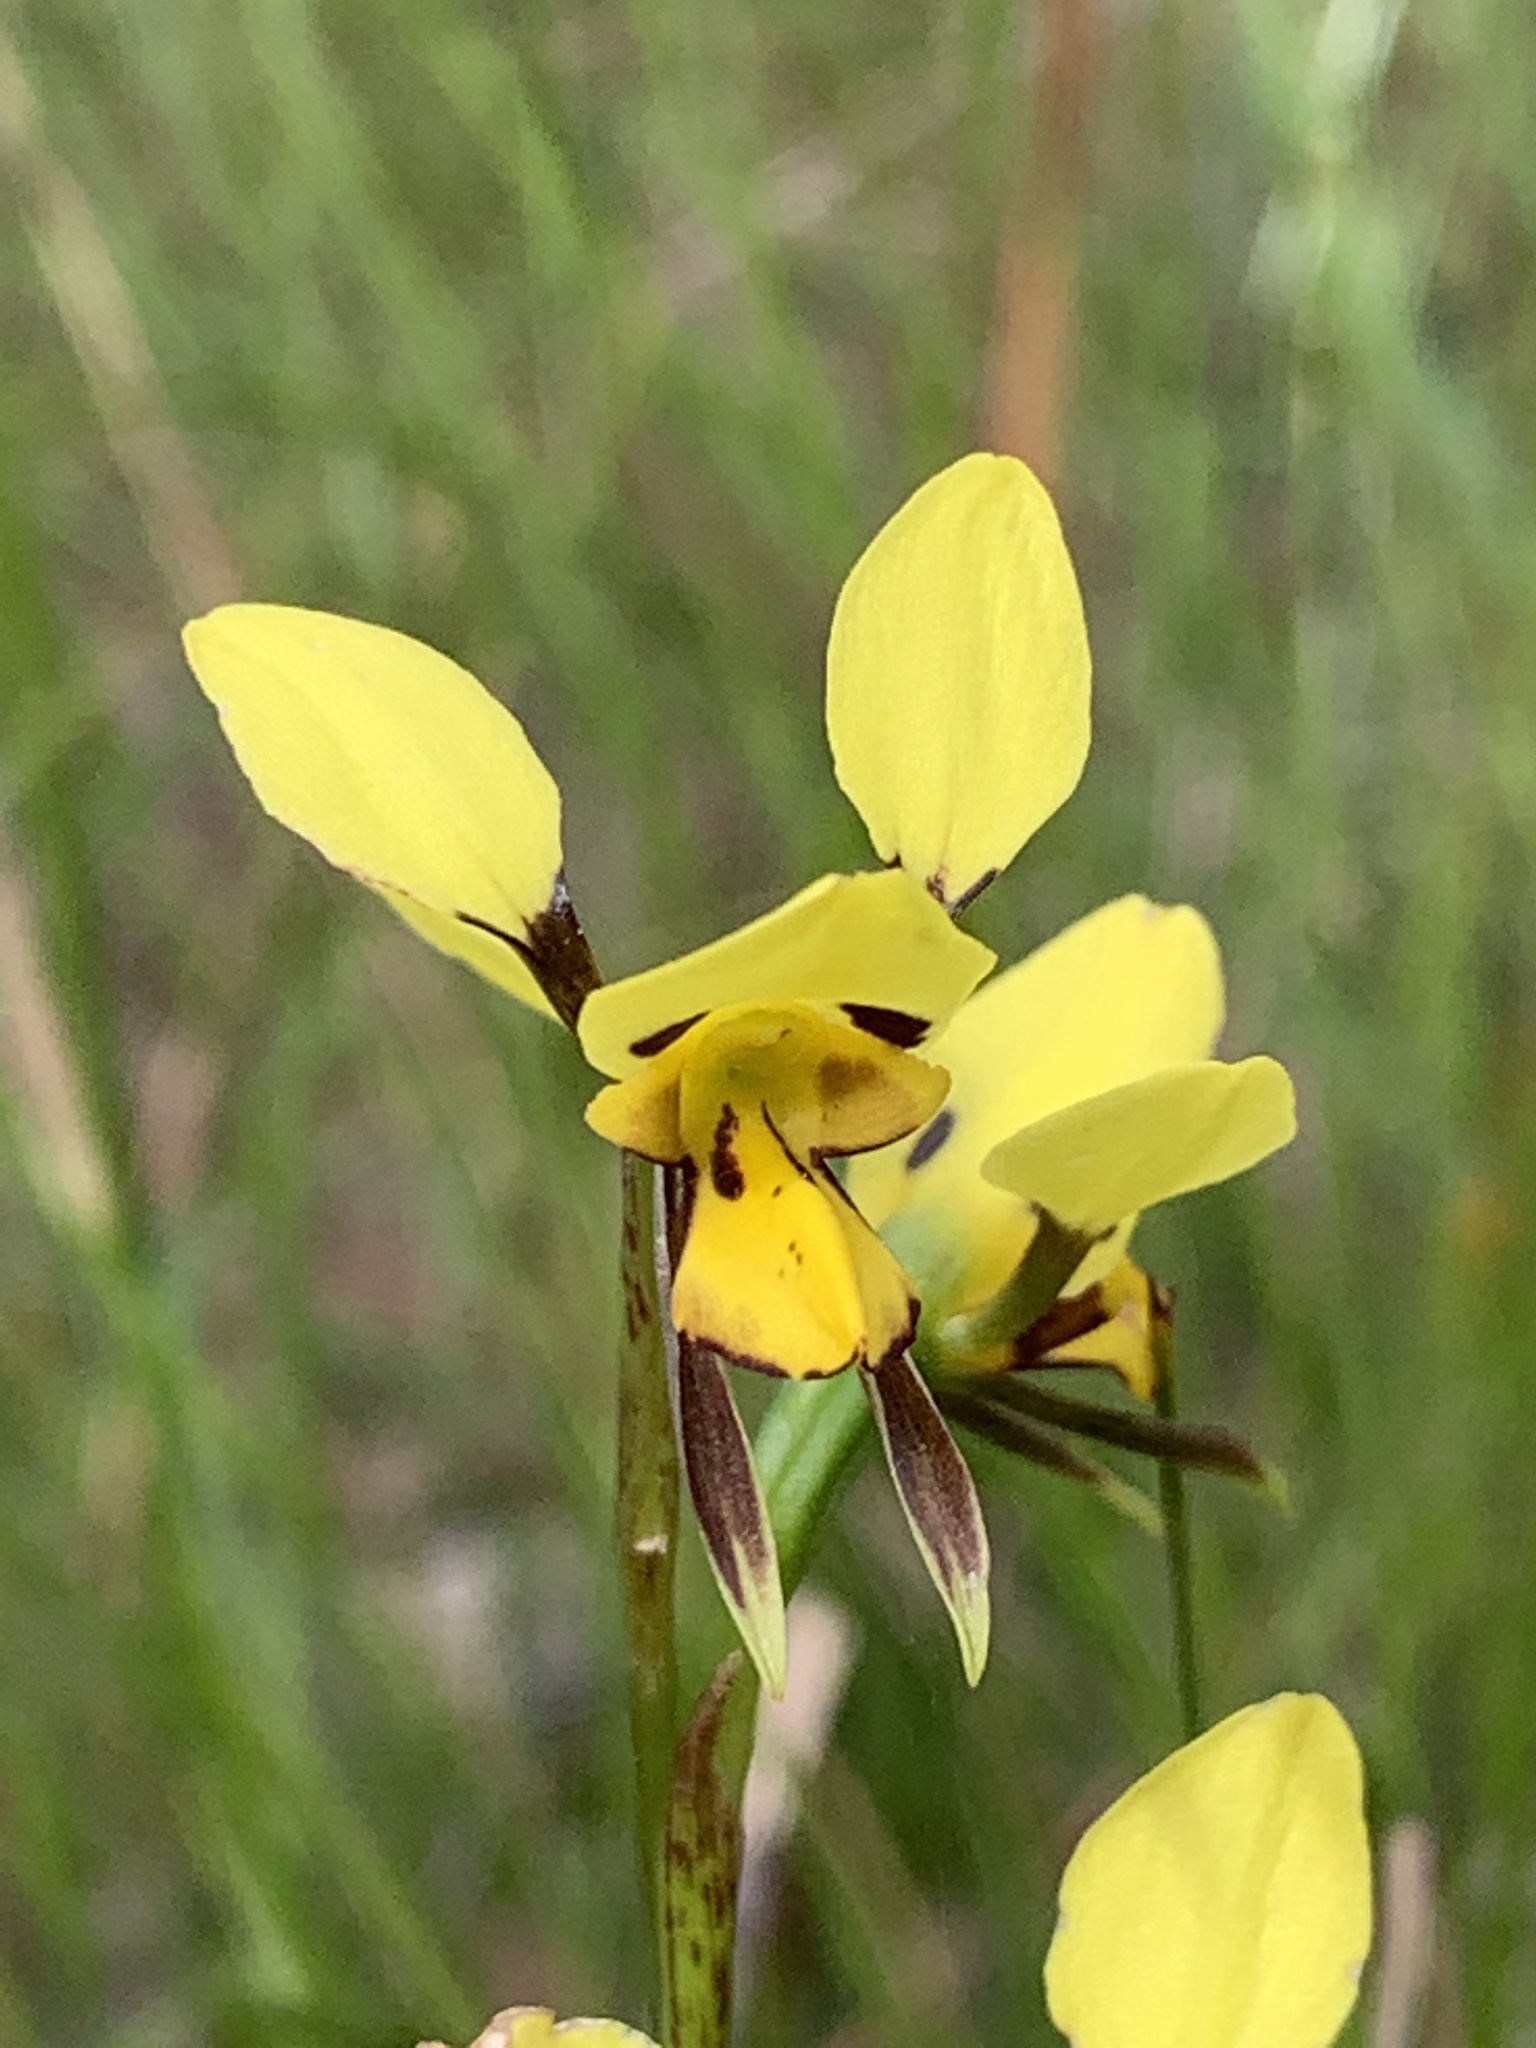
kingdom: Plantae
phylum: Tracheophyta
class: Liliopsida
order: Asparagales
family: Orchidaceae
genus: Diuris
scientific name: Diuris sulphurea
